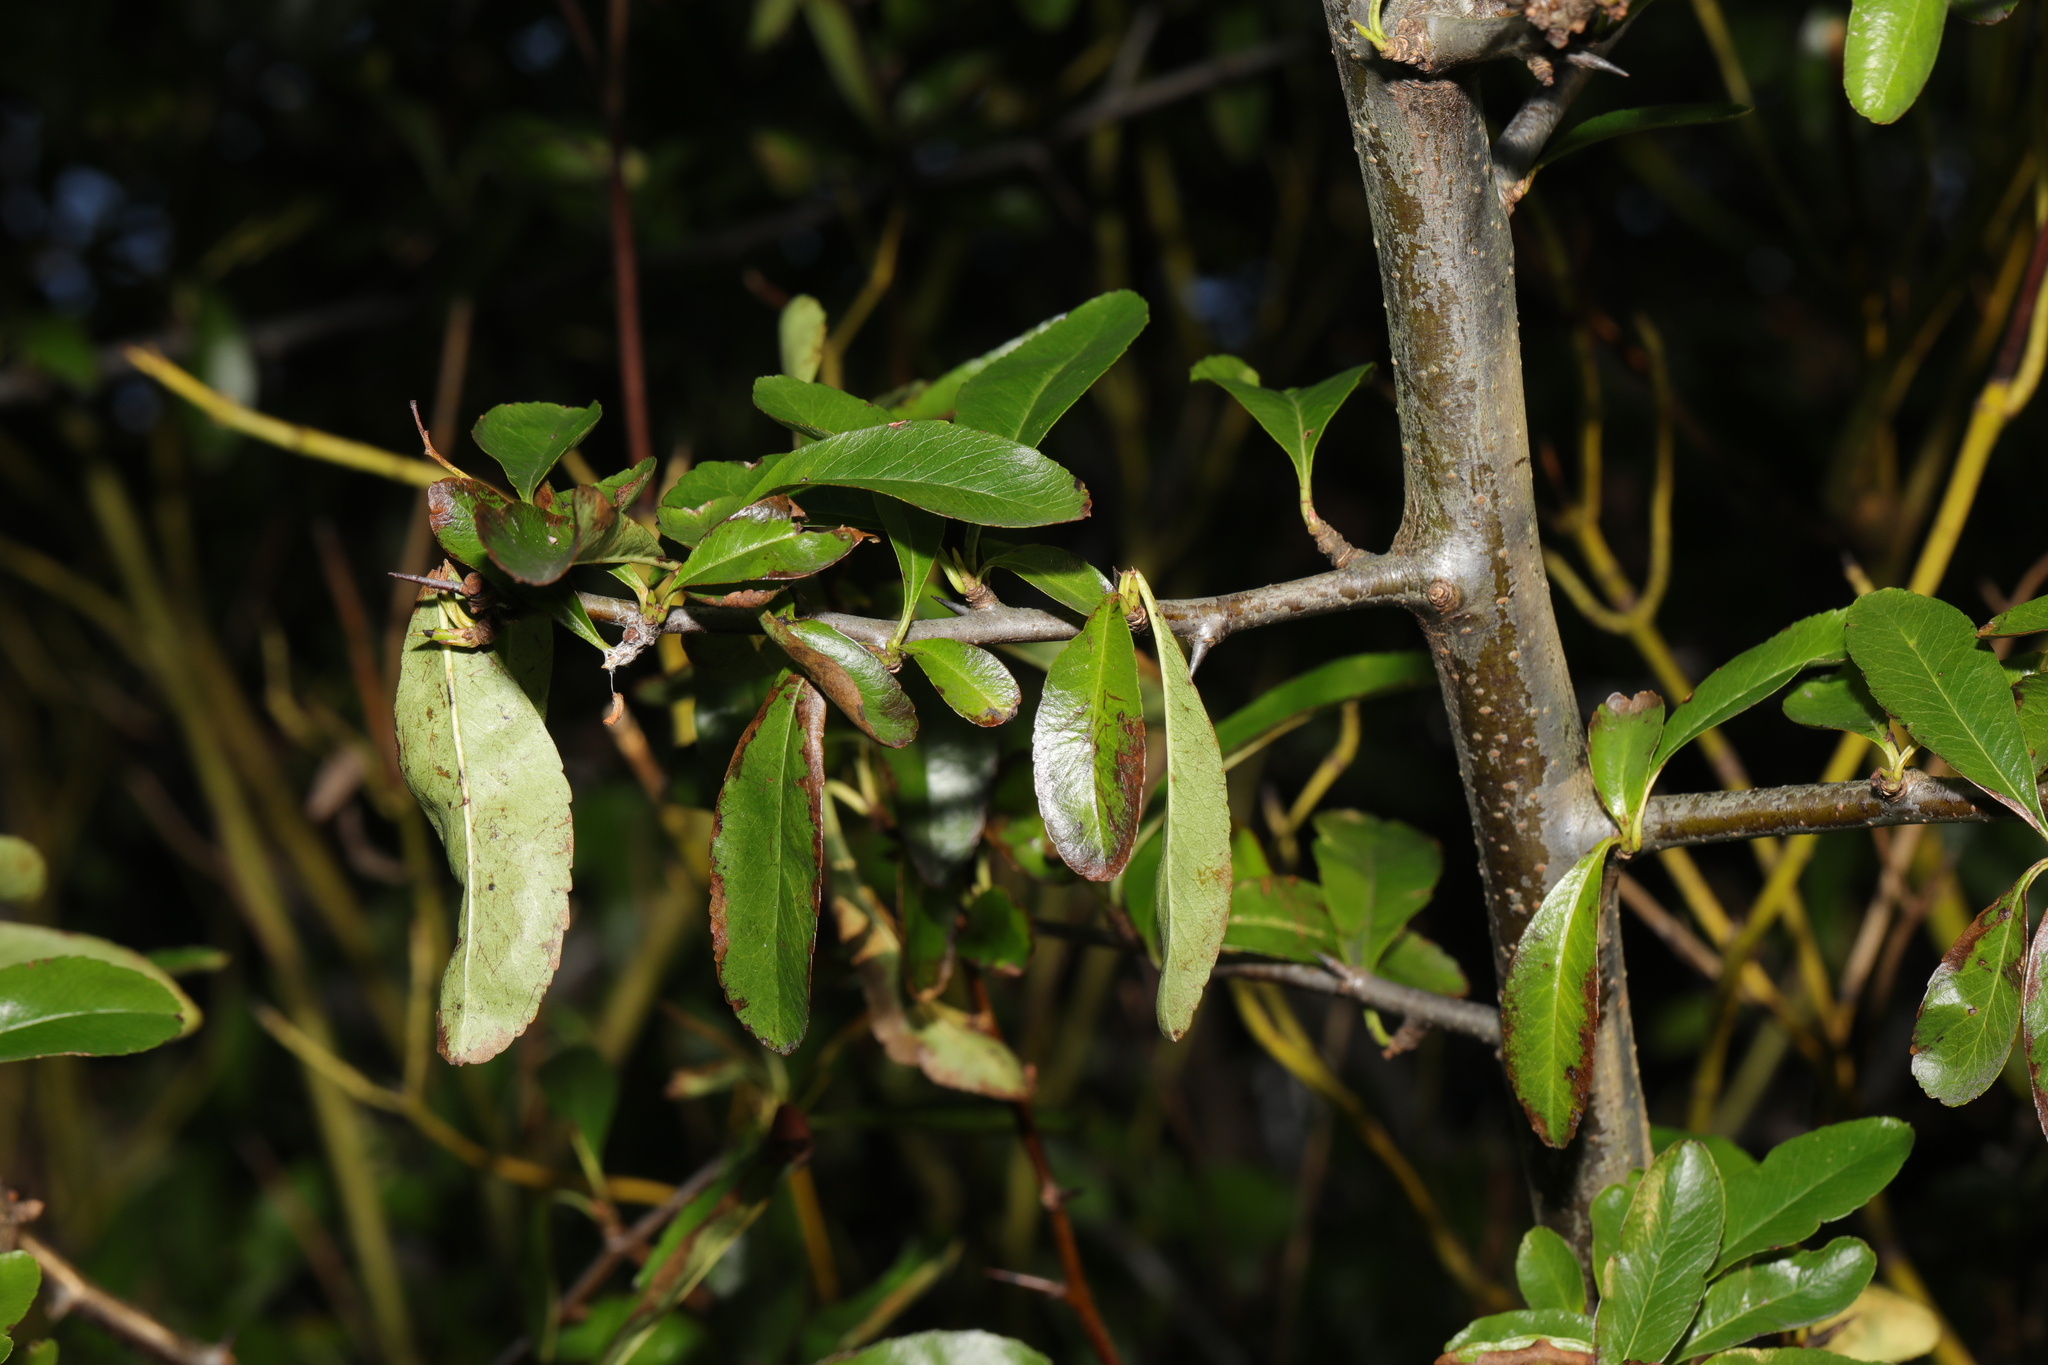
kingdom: Plantae
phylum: Tracheophyta
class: Magnoliopsida
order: Rosales
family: Rosaceae
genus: Pyracantha
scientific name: Pyracantha coccinea
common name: Firethorn
